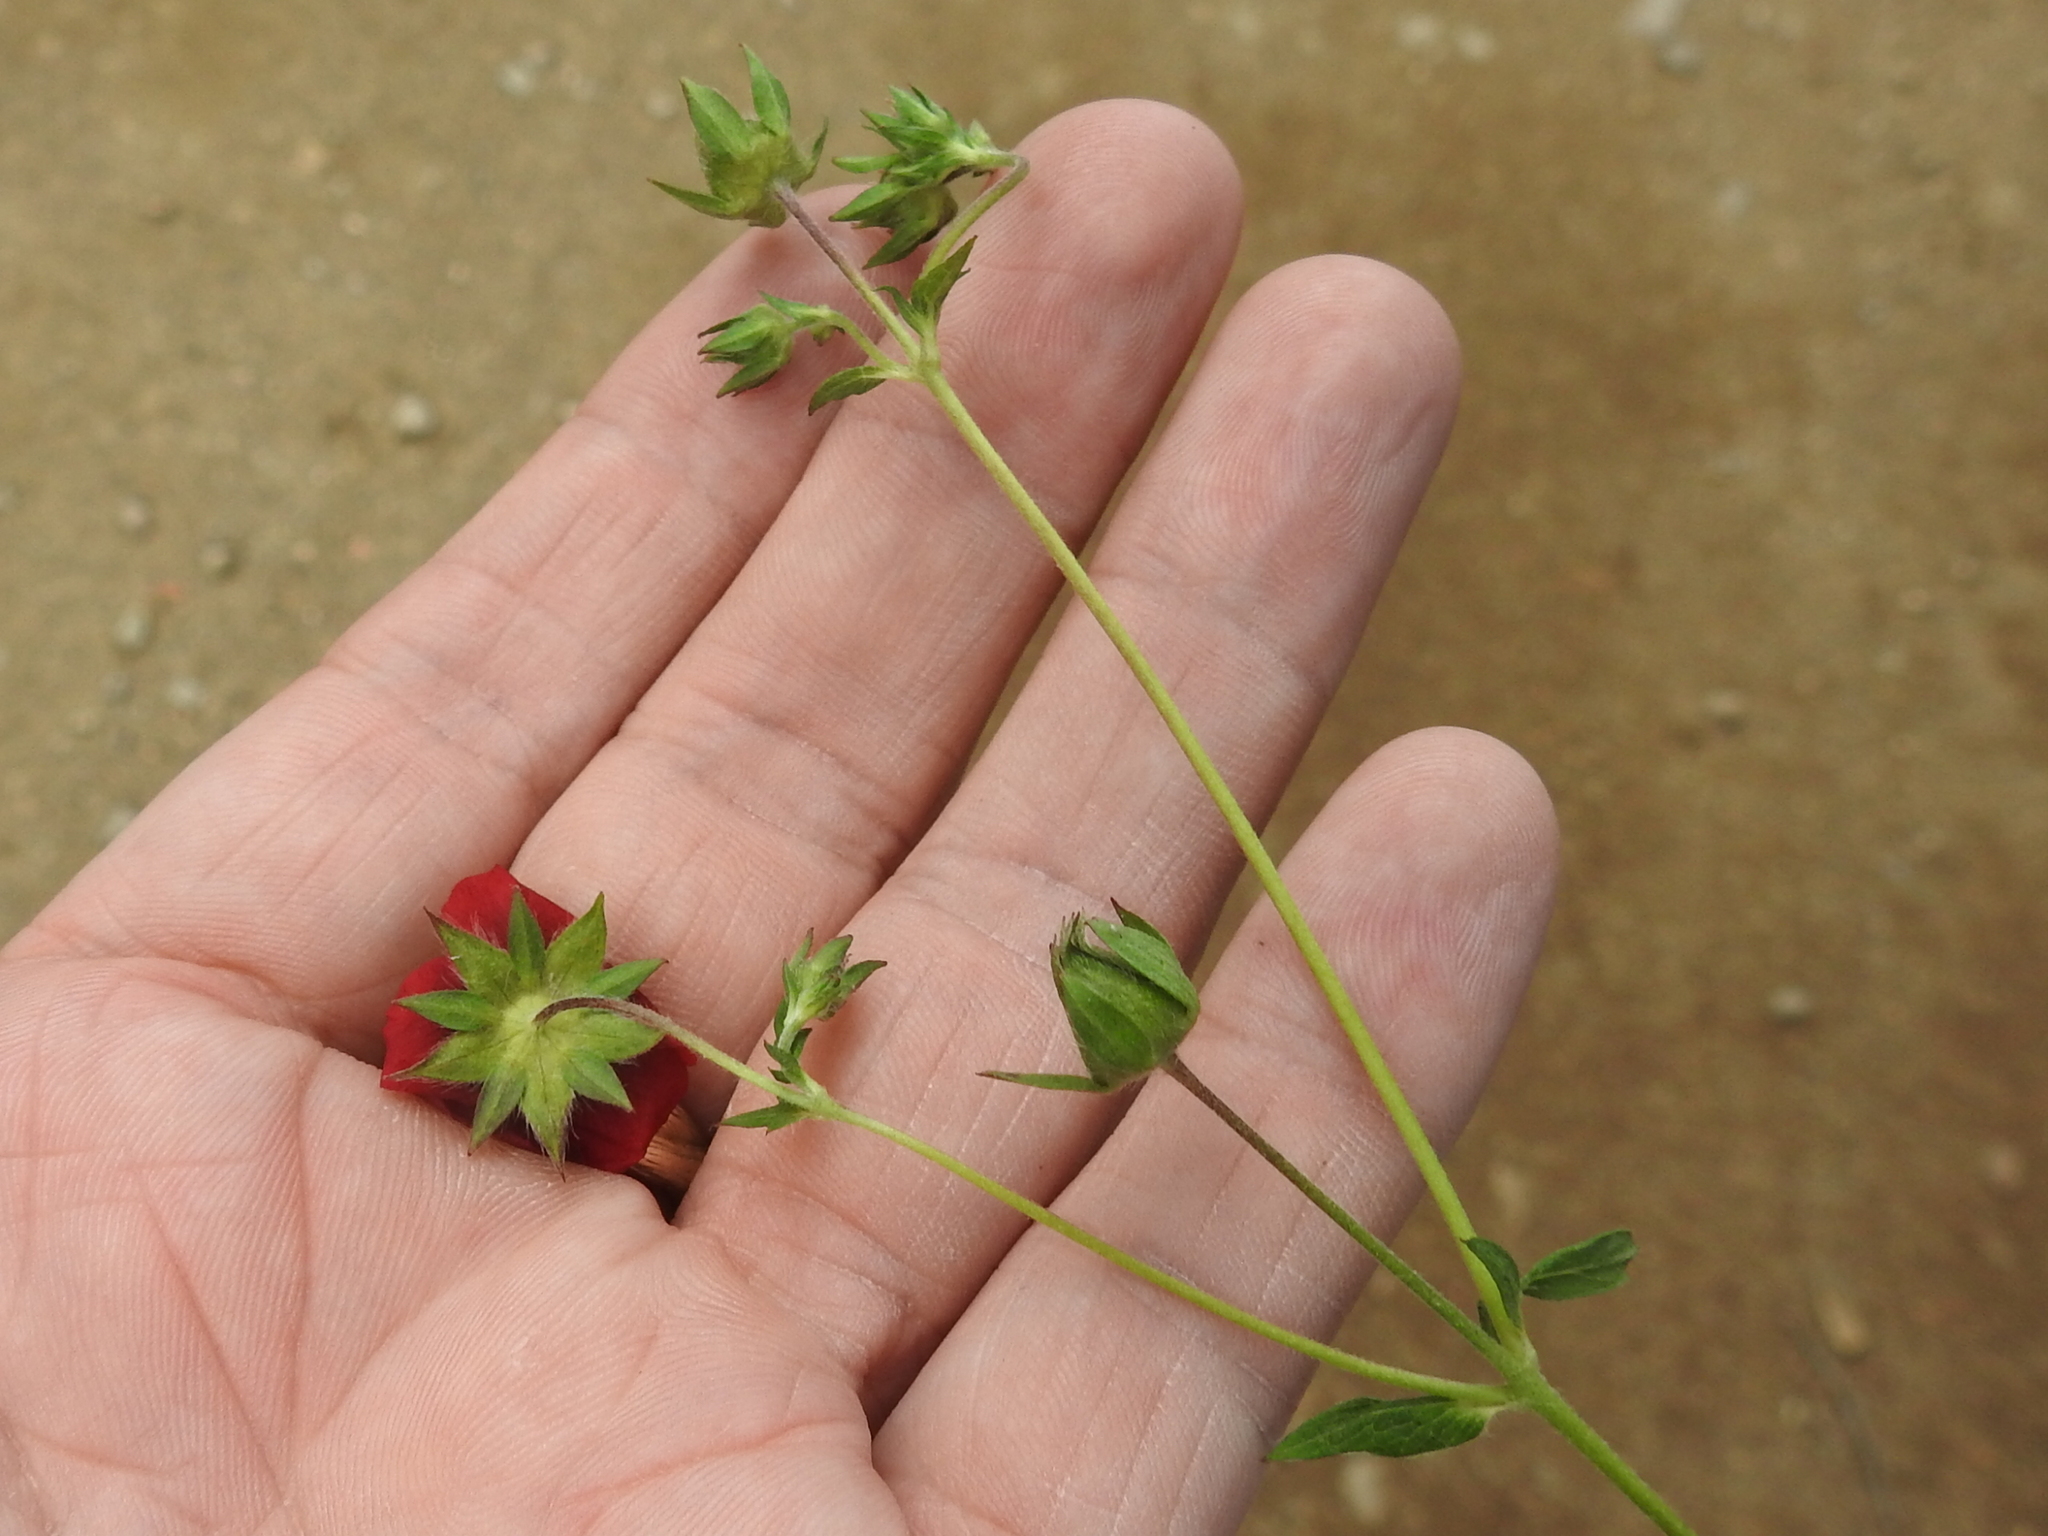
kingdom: Plantae
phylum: Tracheophyta
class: Magnoliopsida
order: Rosales
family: Rosaceae
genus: Potentilla
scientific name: Potentilla thurberi
